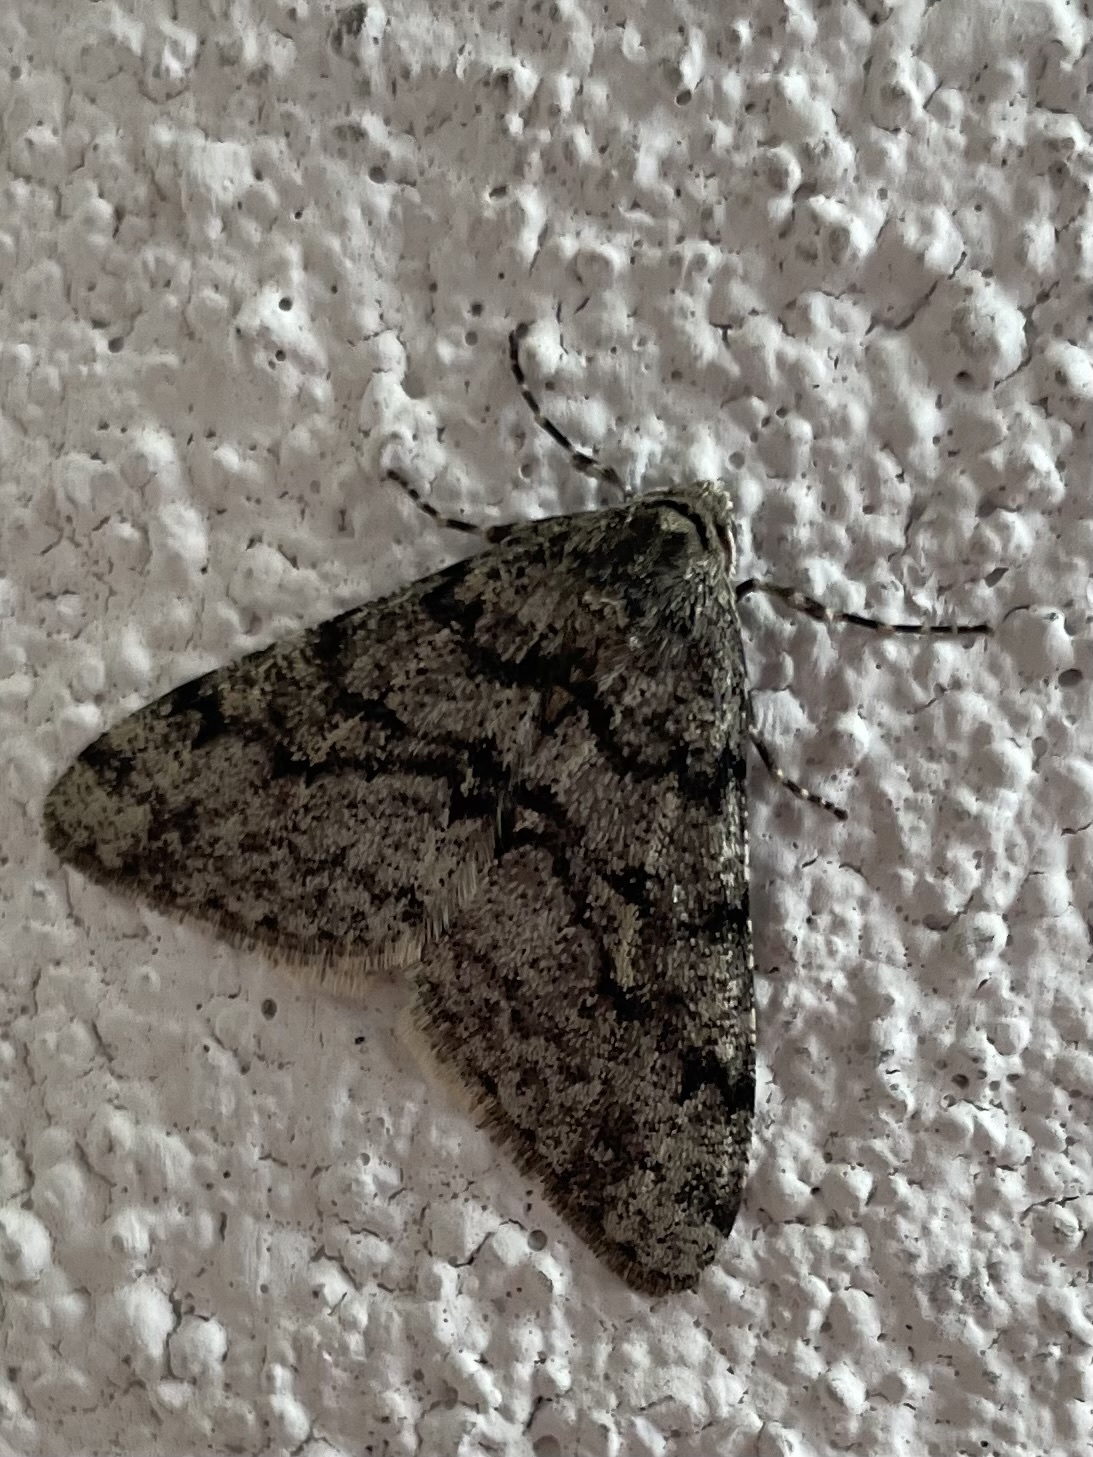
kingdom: Animalia
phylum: Arthropoda
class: Insecta
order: Lepidoptera
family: Geometridae
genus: Phigalia
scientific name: Phigalia strigataria
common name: Small phigalia
